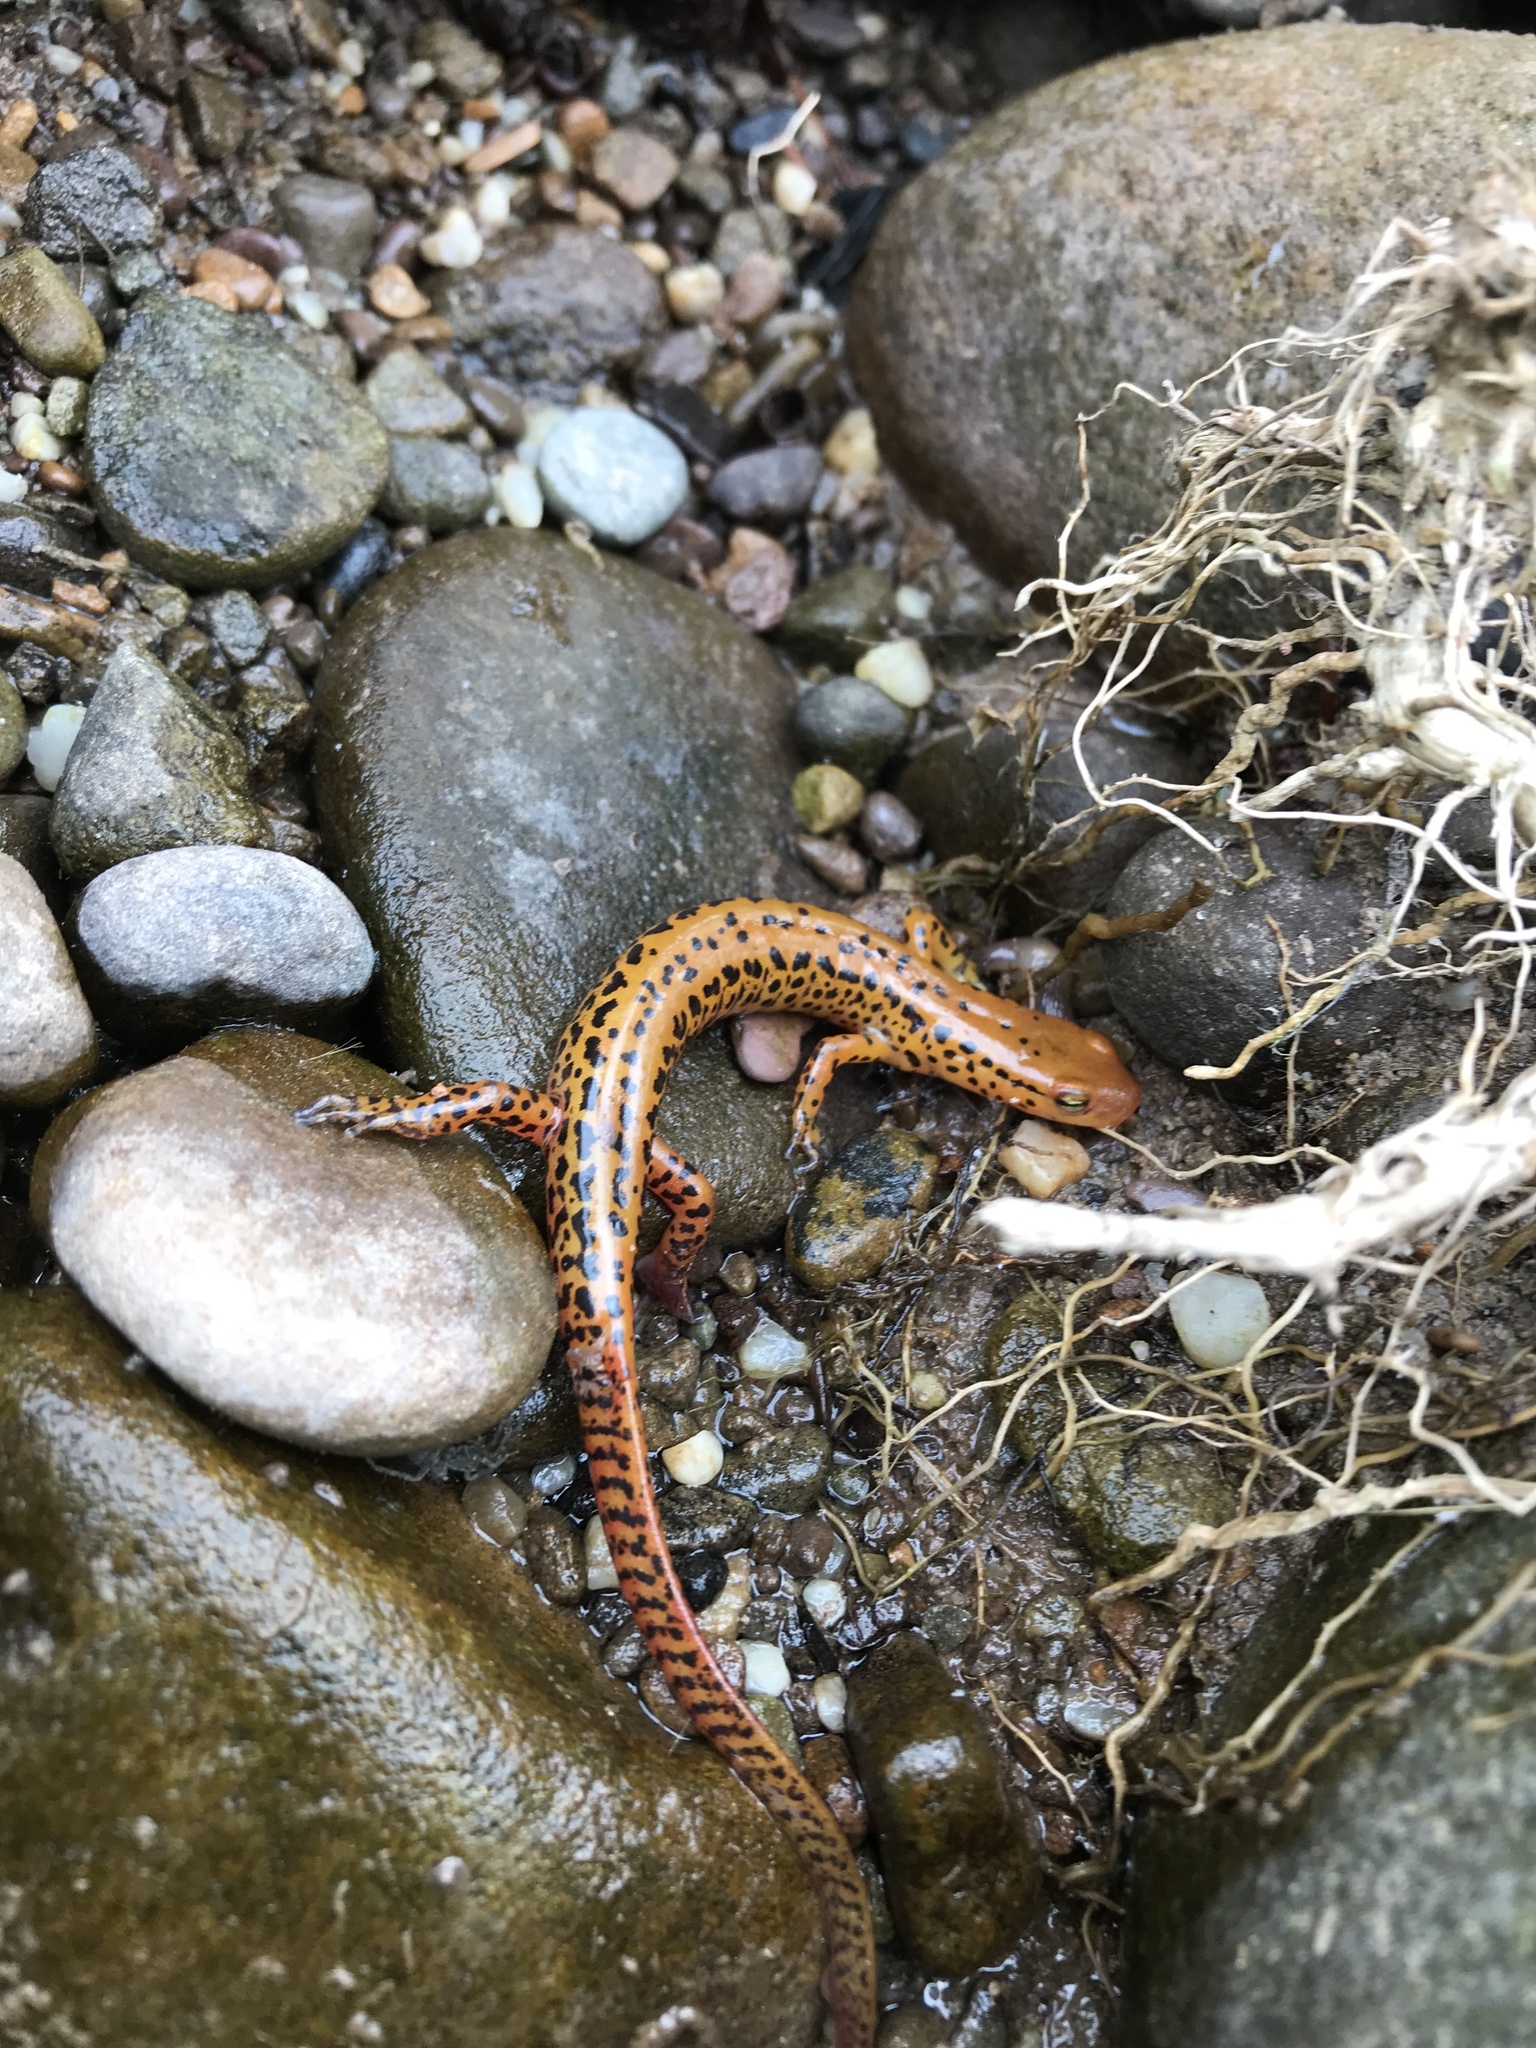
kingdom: Animalia
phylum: Chordata
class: Amphibia
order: Caudata
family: Plethodontidae
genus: Eurycea
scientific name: Eurycea longicauda
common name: Long-tailed salamander
